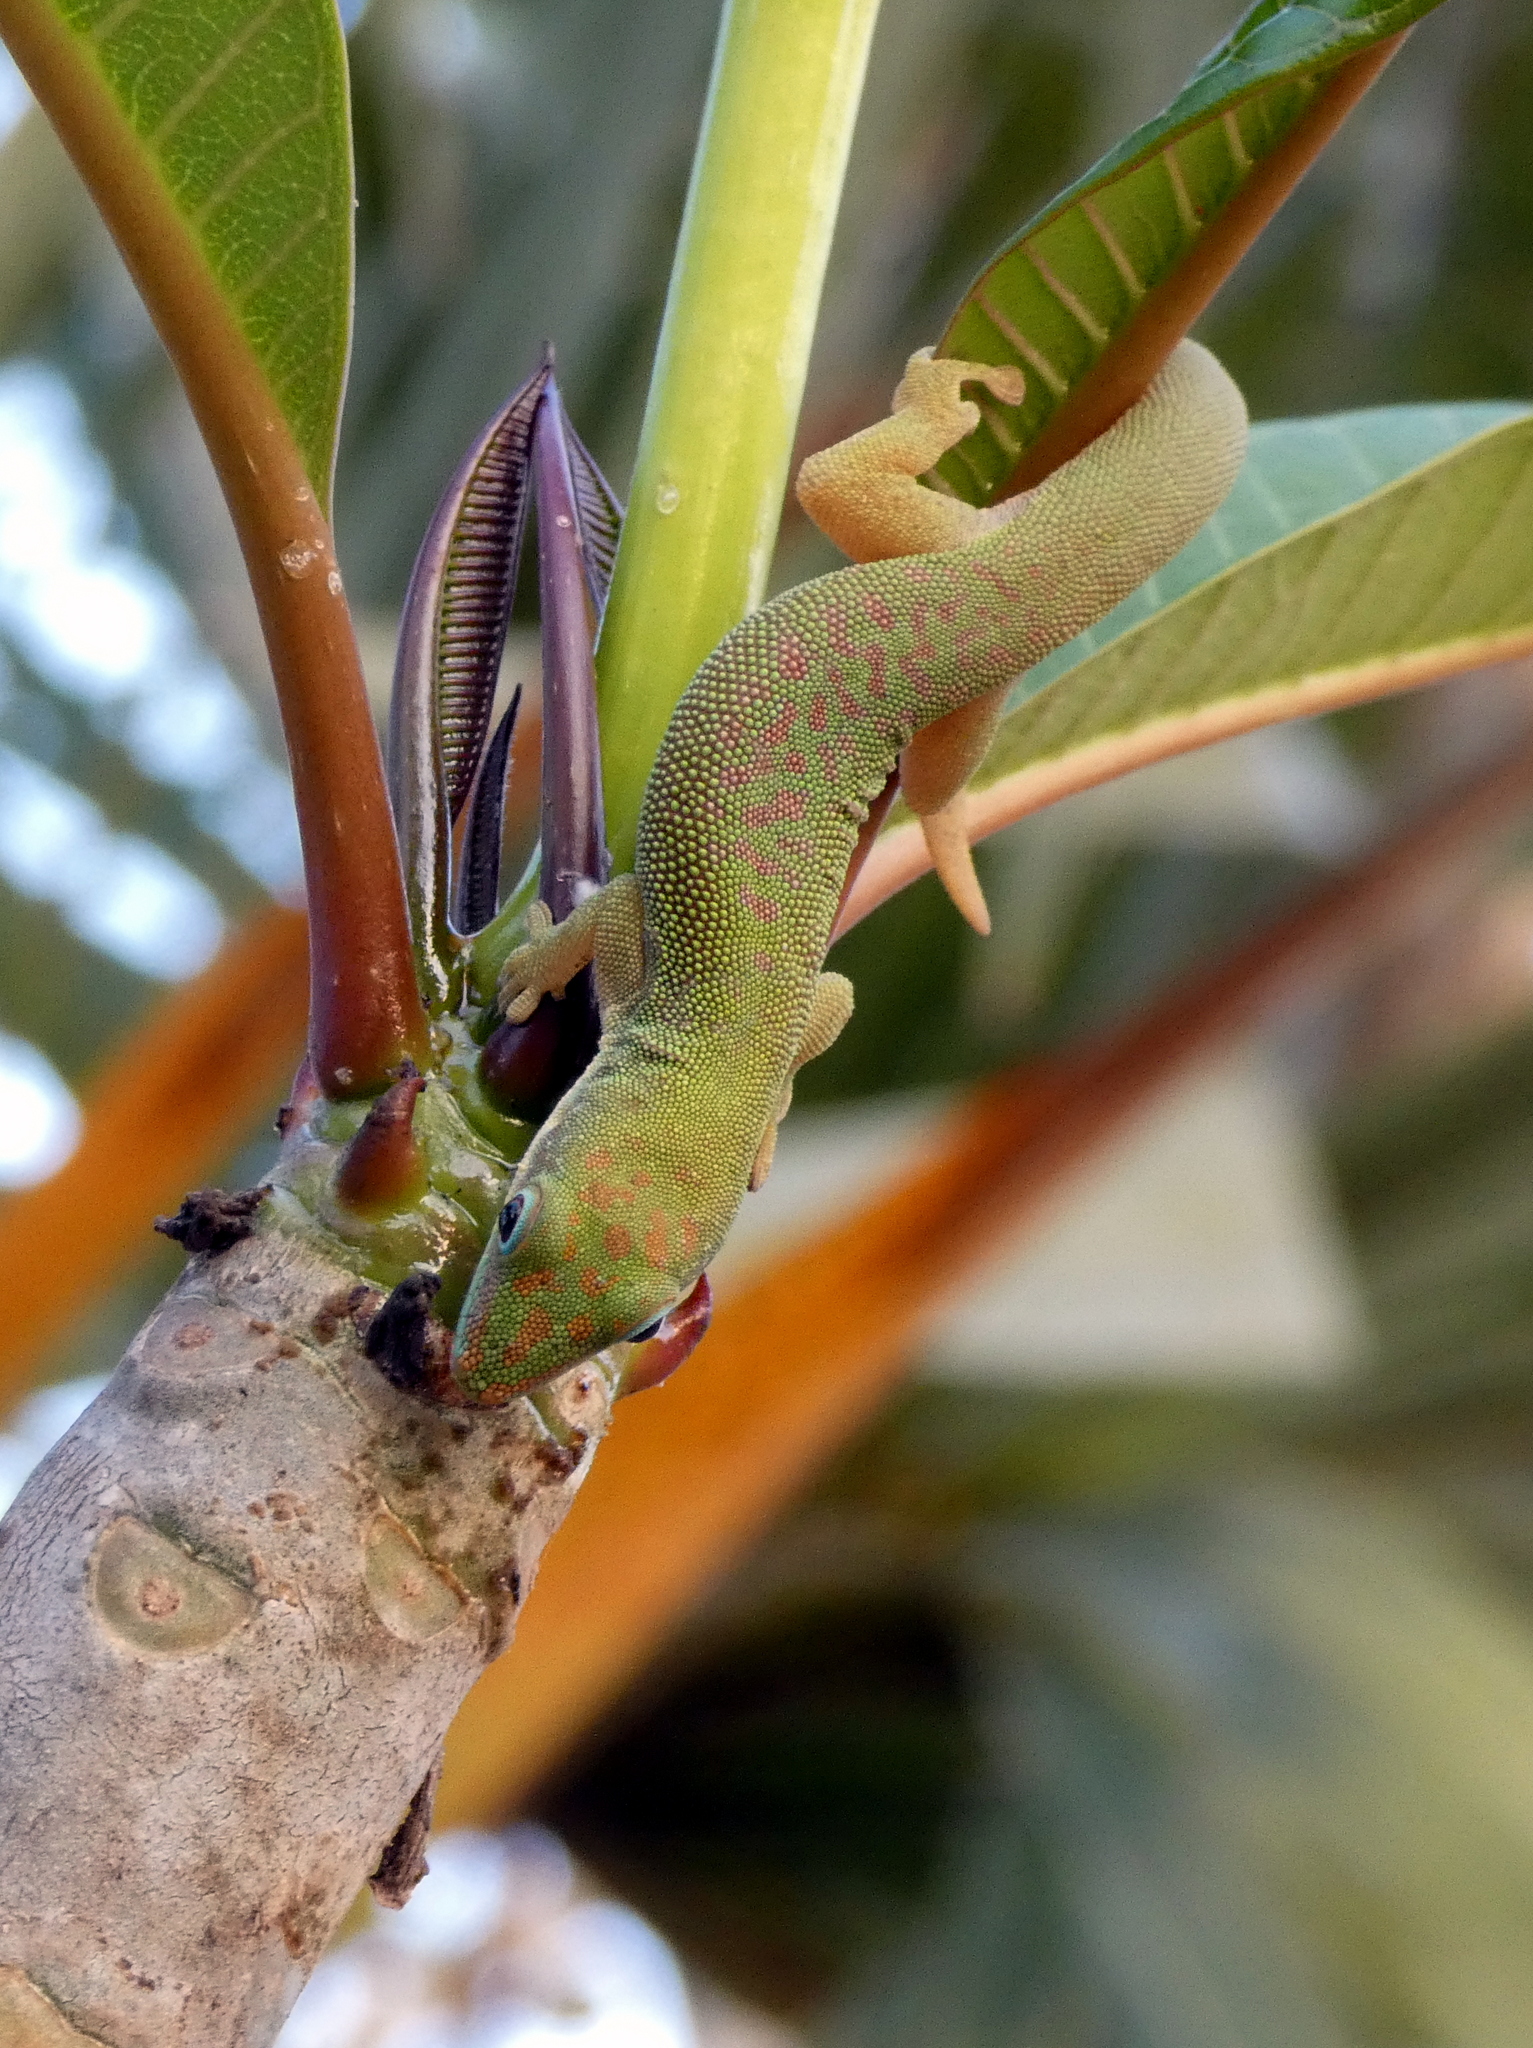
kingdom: Animalia
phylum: Chordata
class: Squamata
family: Gekkonidae
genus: Phelsuma
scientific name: Phelsuma dubia
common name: Zanzibar day gecko
